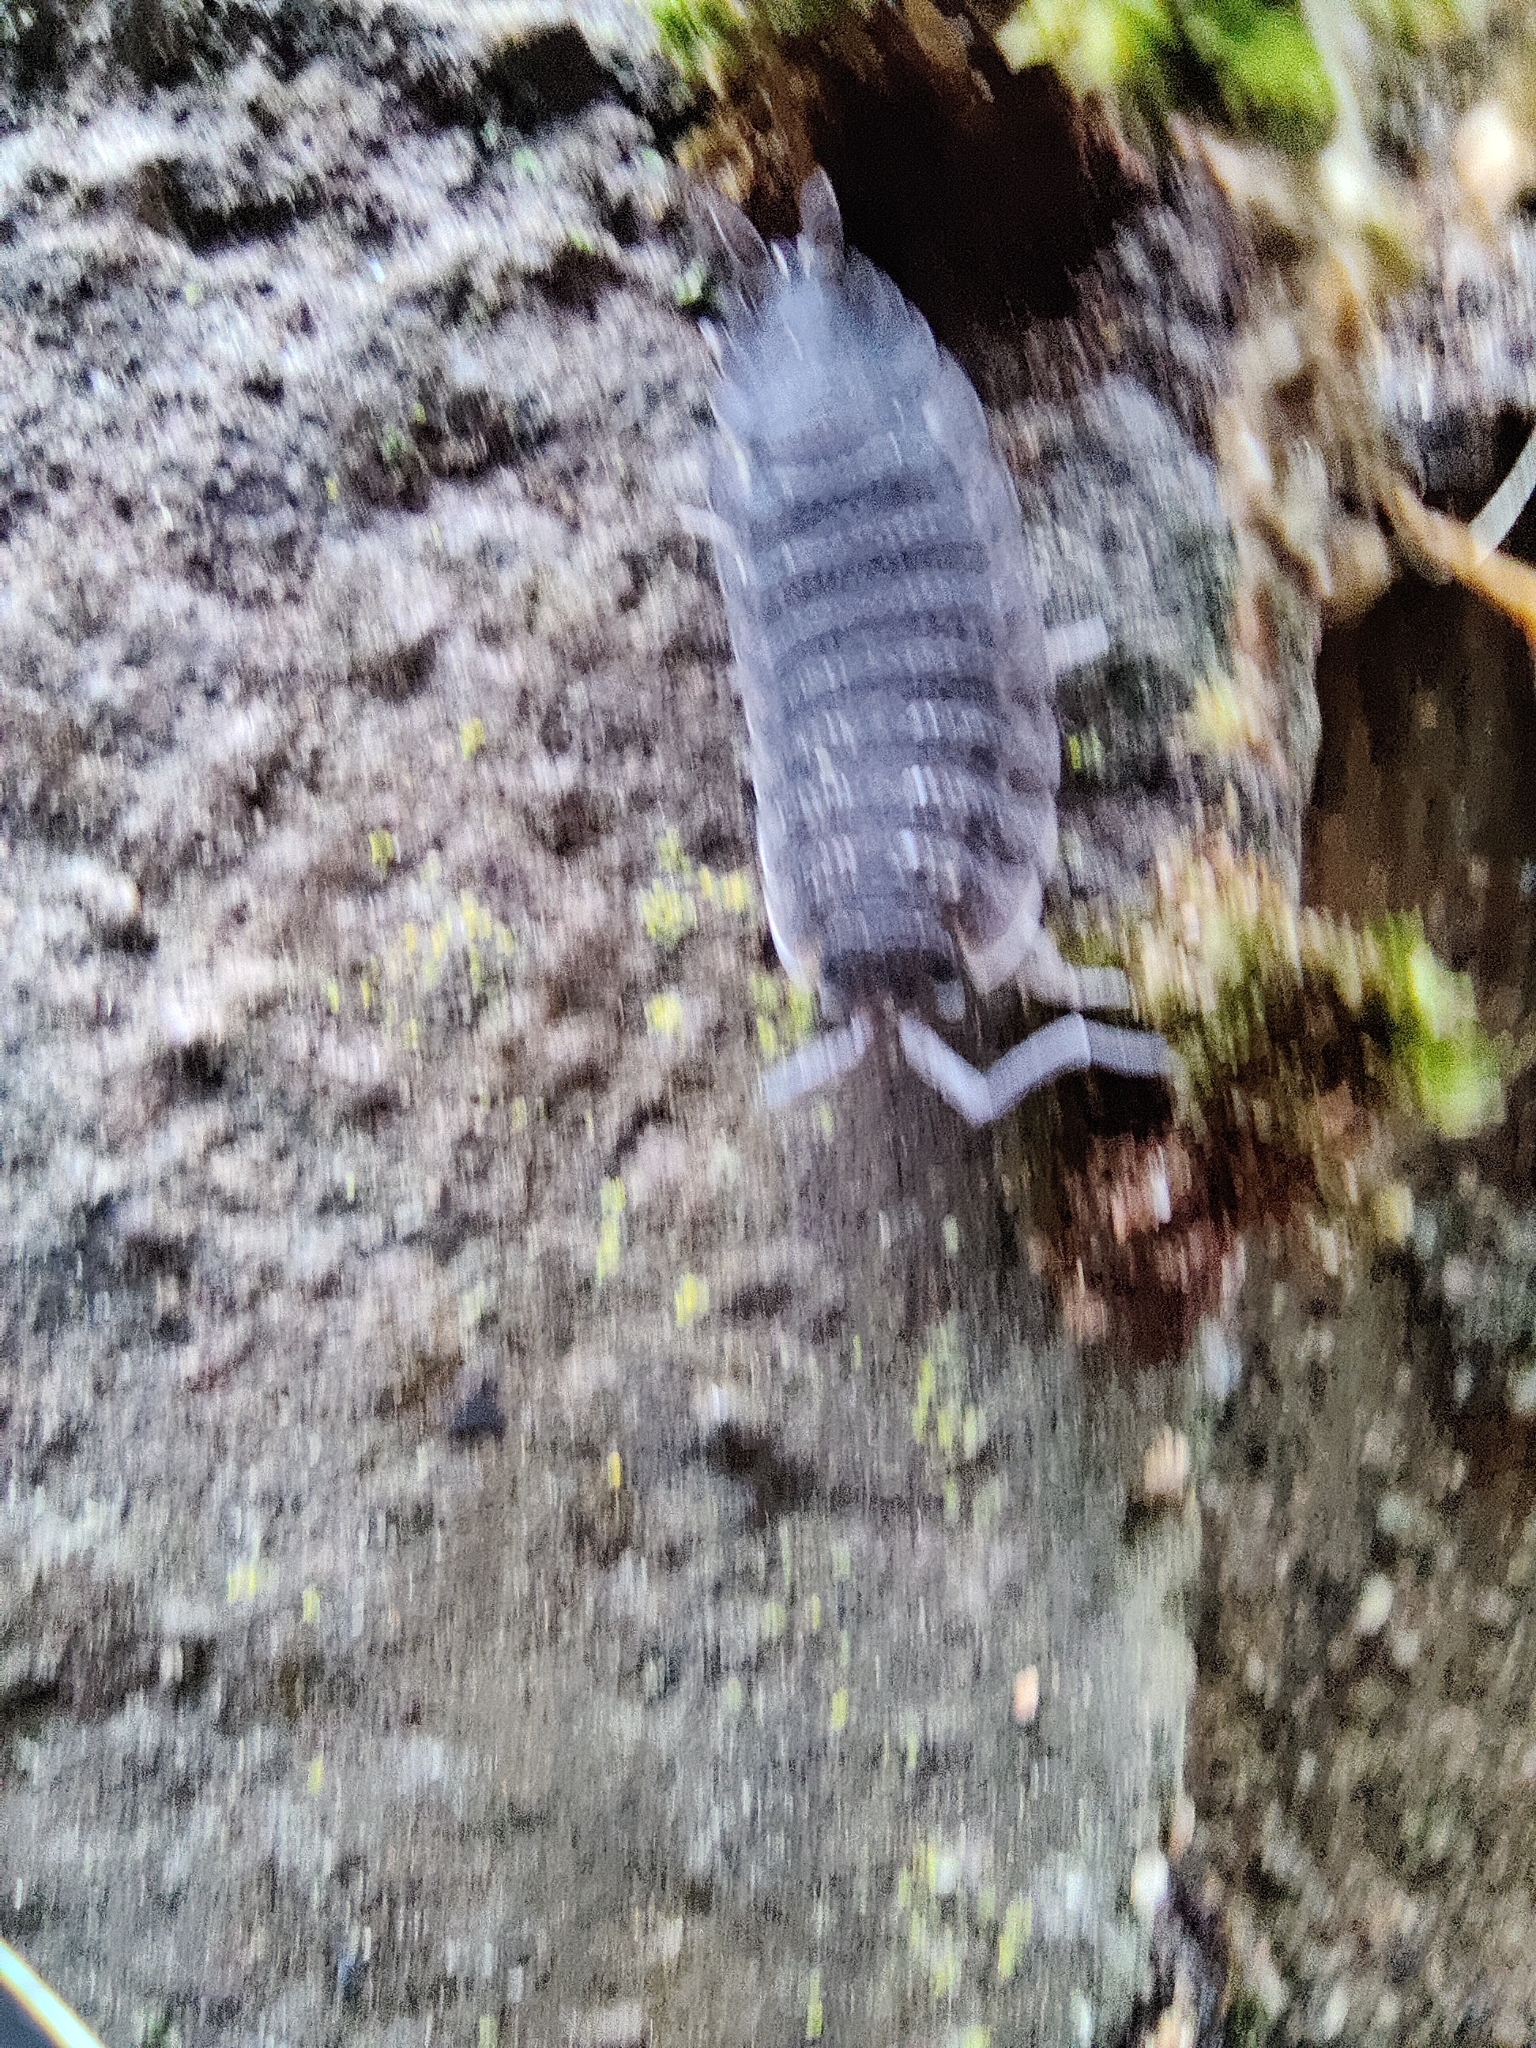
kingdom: Animalia
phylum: Arthropoda
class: Malacostraca
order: Isopoda
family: Porcellionidae
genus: Porcellio
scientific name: Porcellio scaber
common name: Common rough woodlouse
